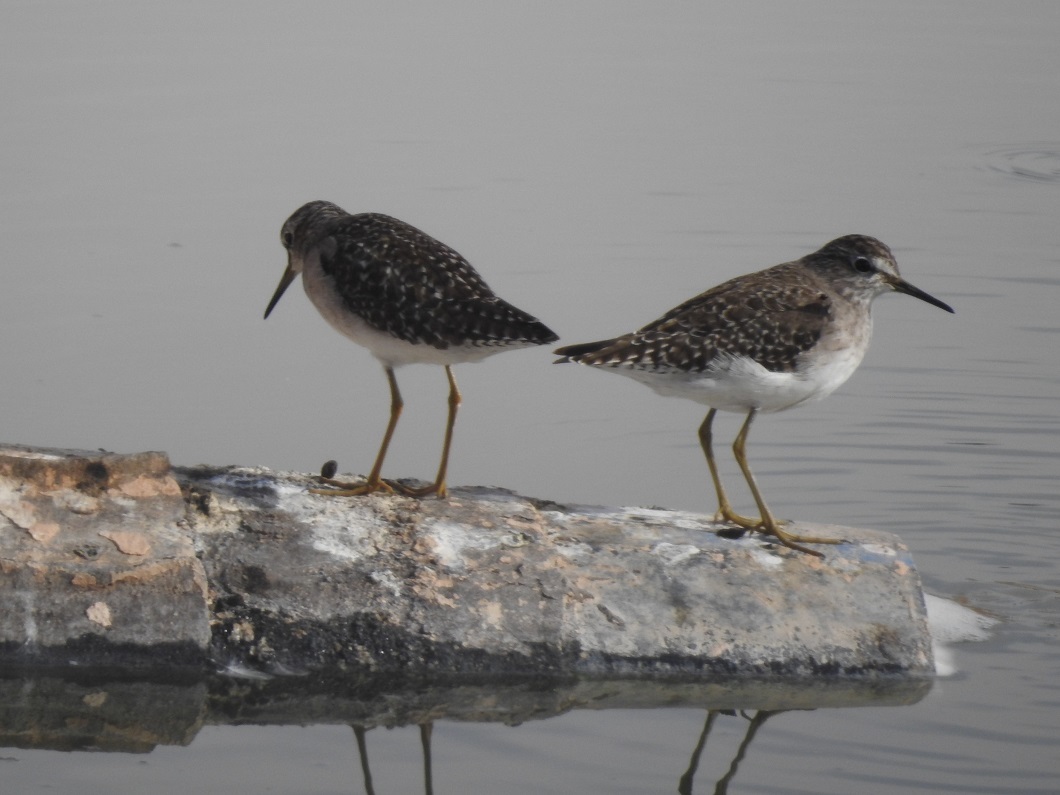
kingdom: Animalia
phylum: Chordata
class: Aves
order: Charadriiformes
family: Scolopacidae
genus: Tringa
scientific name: Tringa glareola
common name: Wood sandpiper
